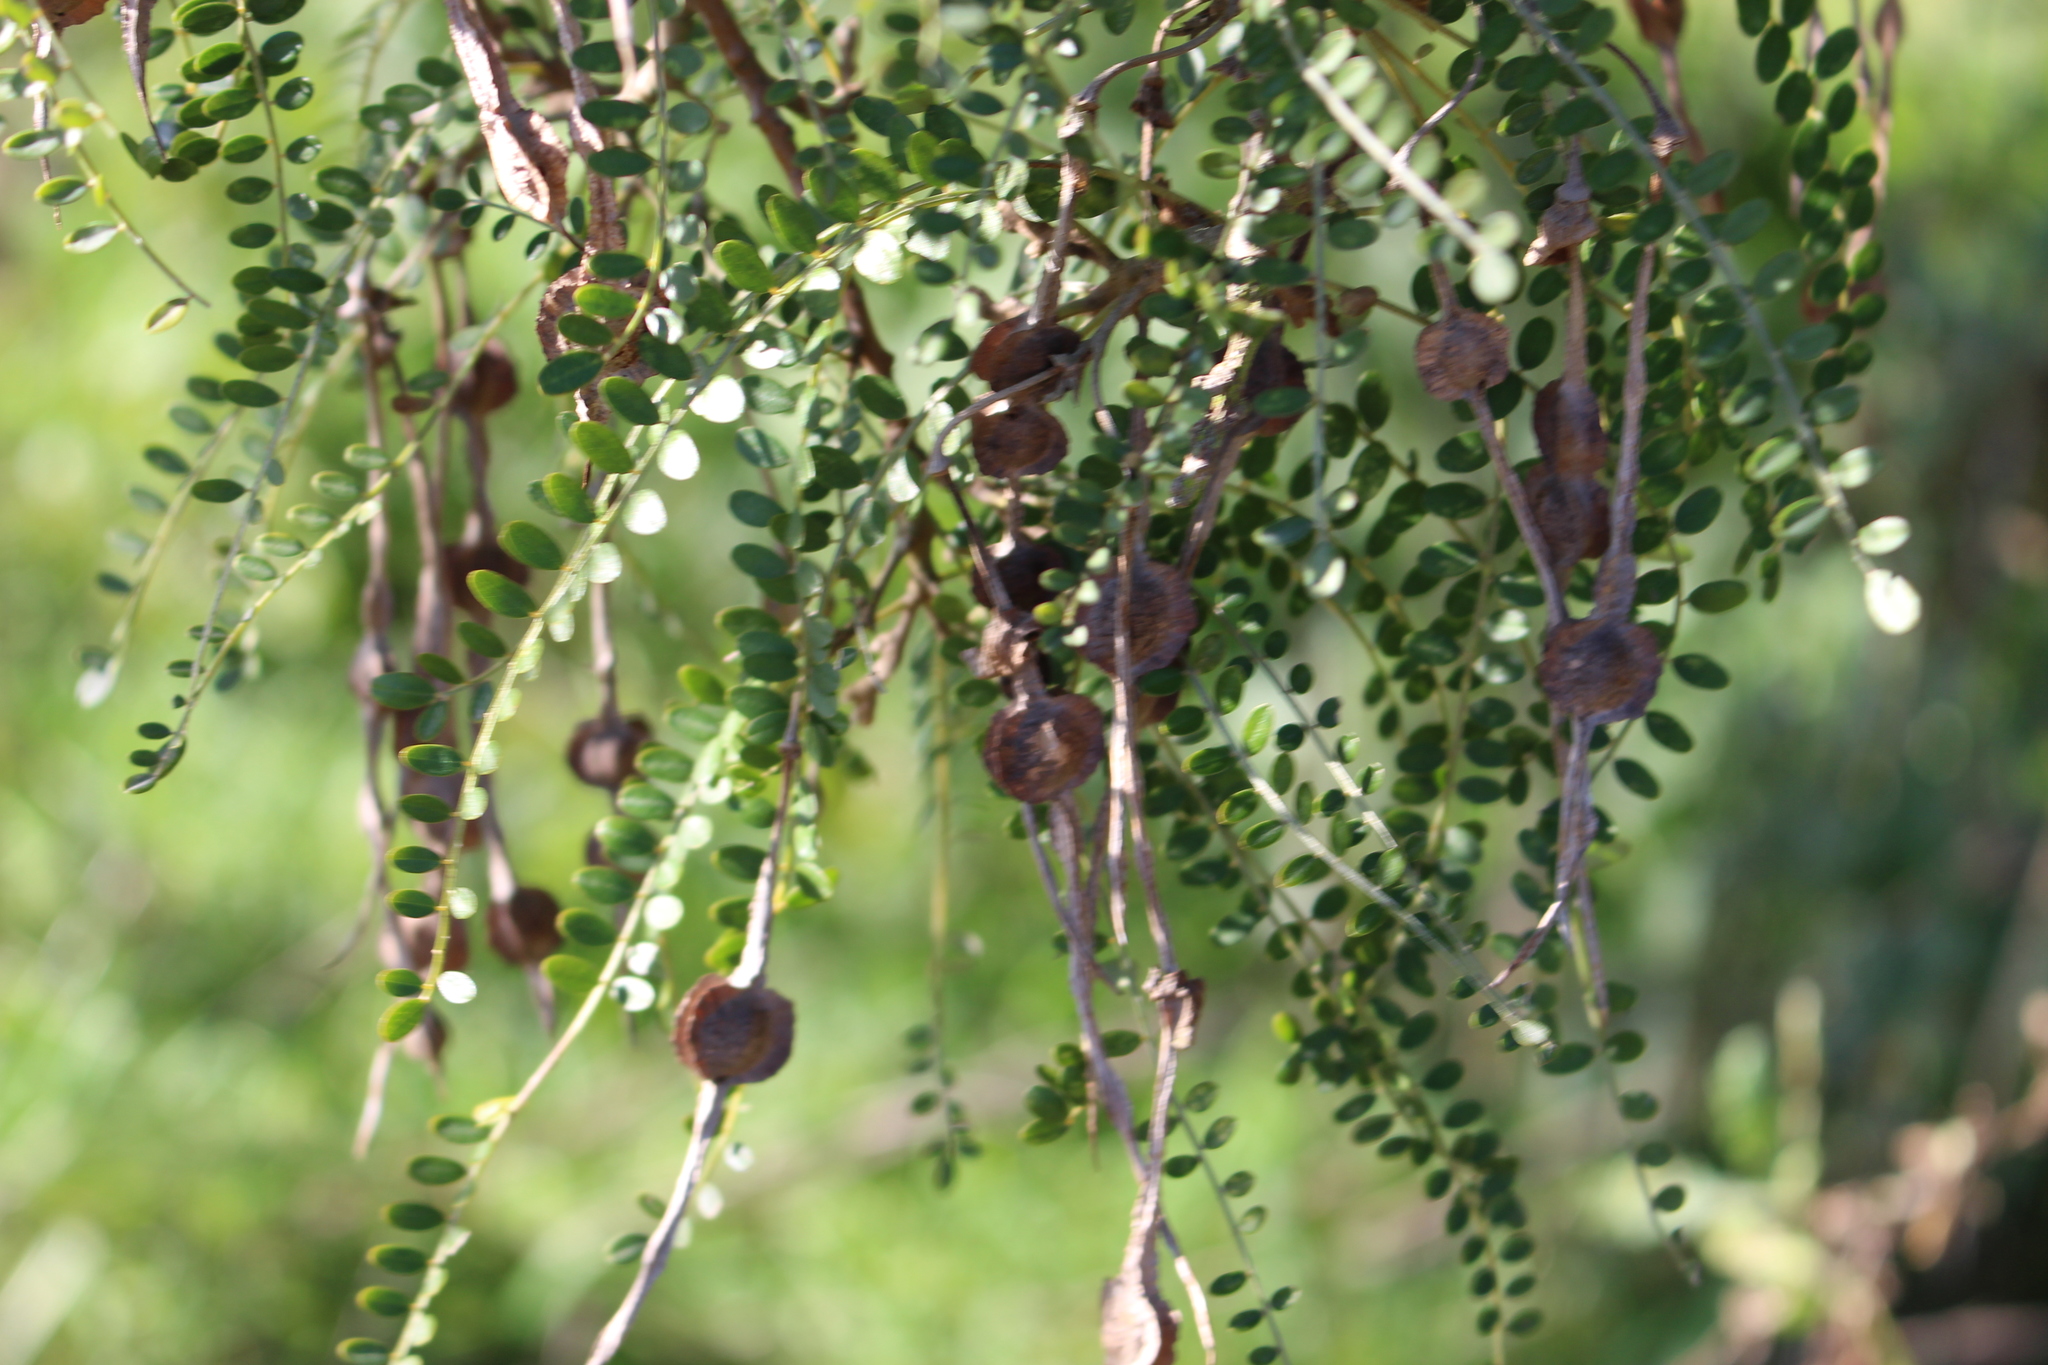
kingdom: Plantae
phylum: Tracheophyta
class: Magnoliopsida
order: Fabales
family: Fabaceae
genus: Sophora
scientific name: Sophora microphylla
